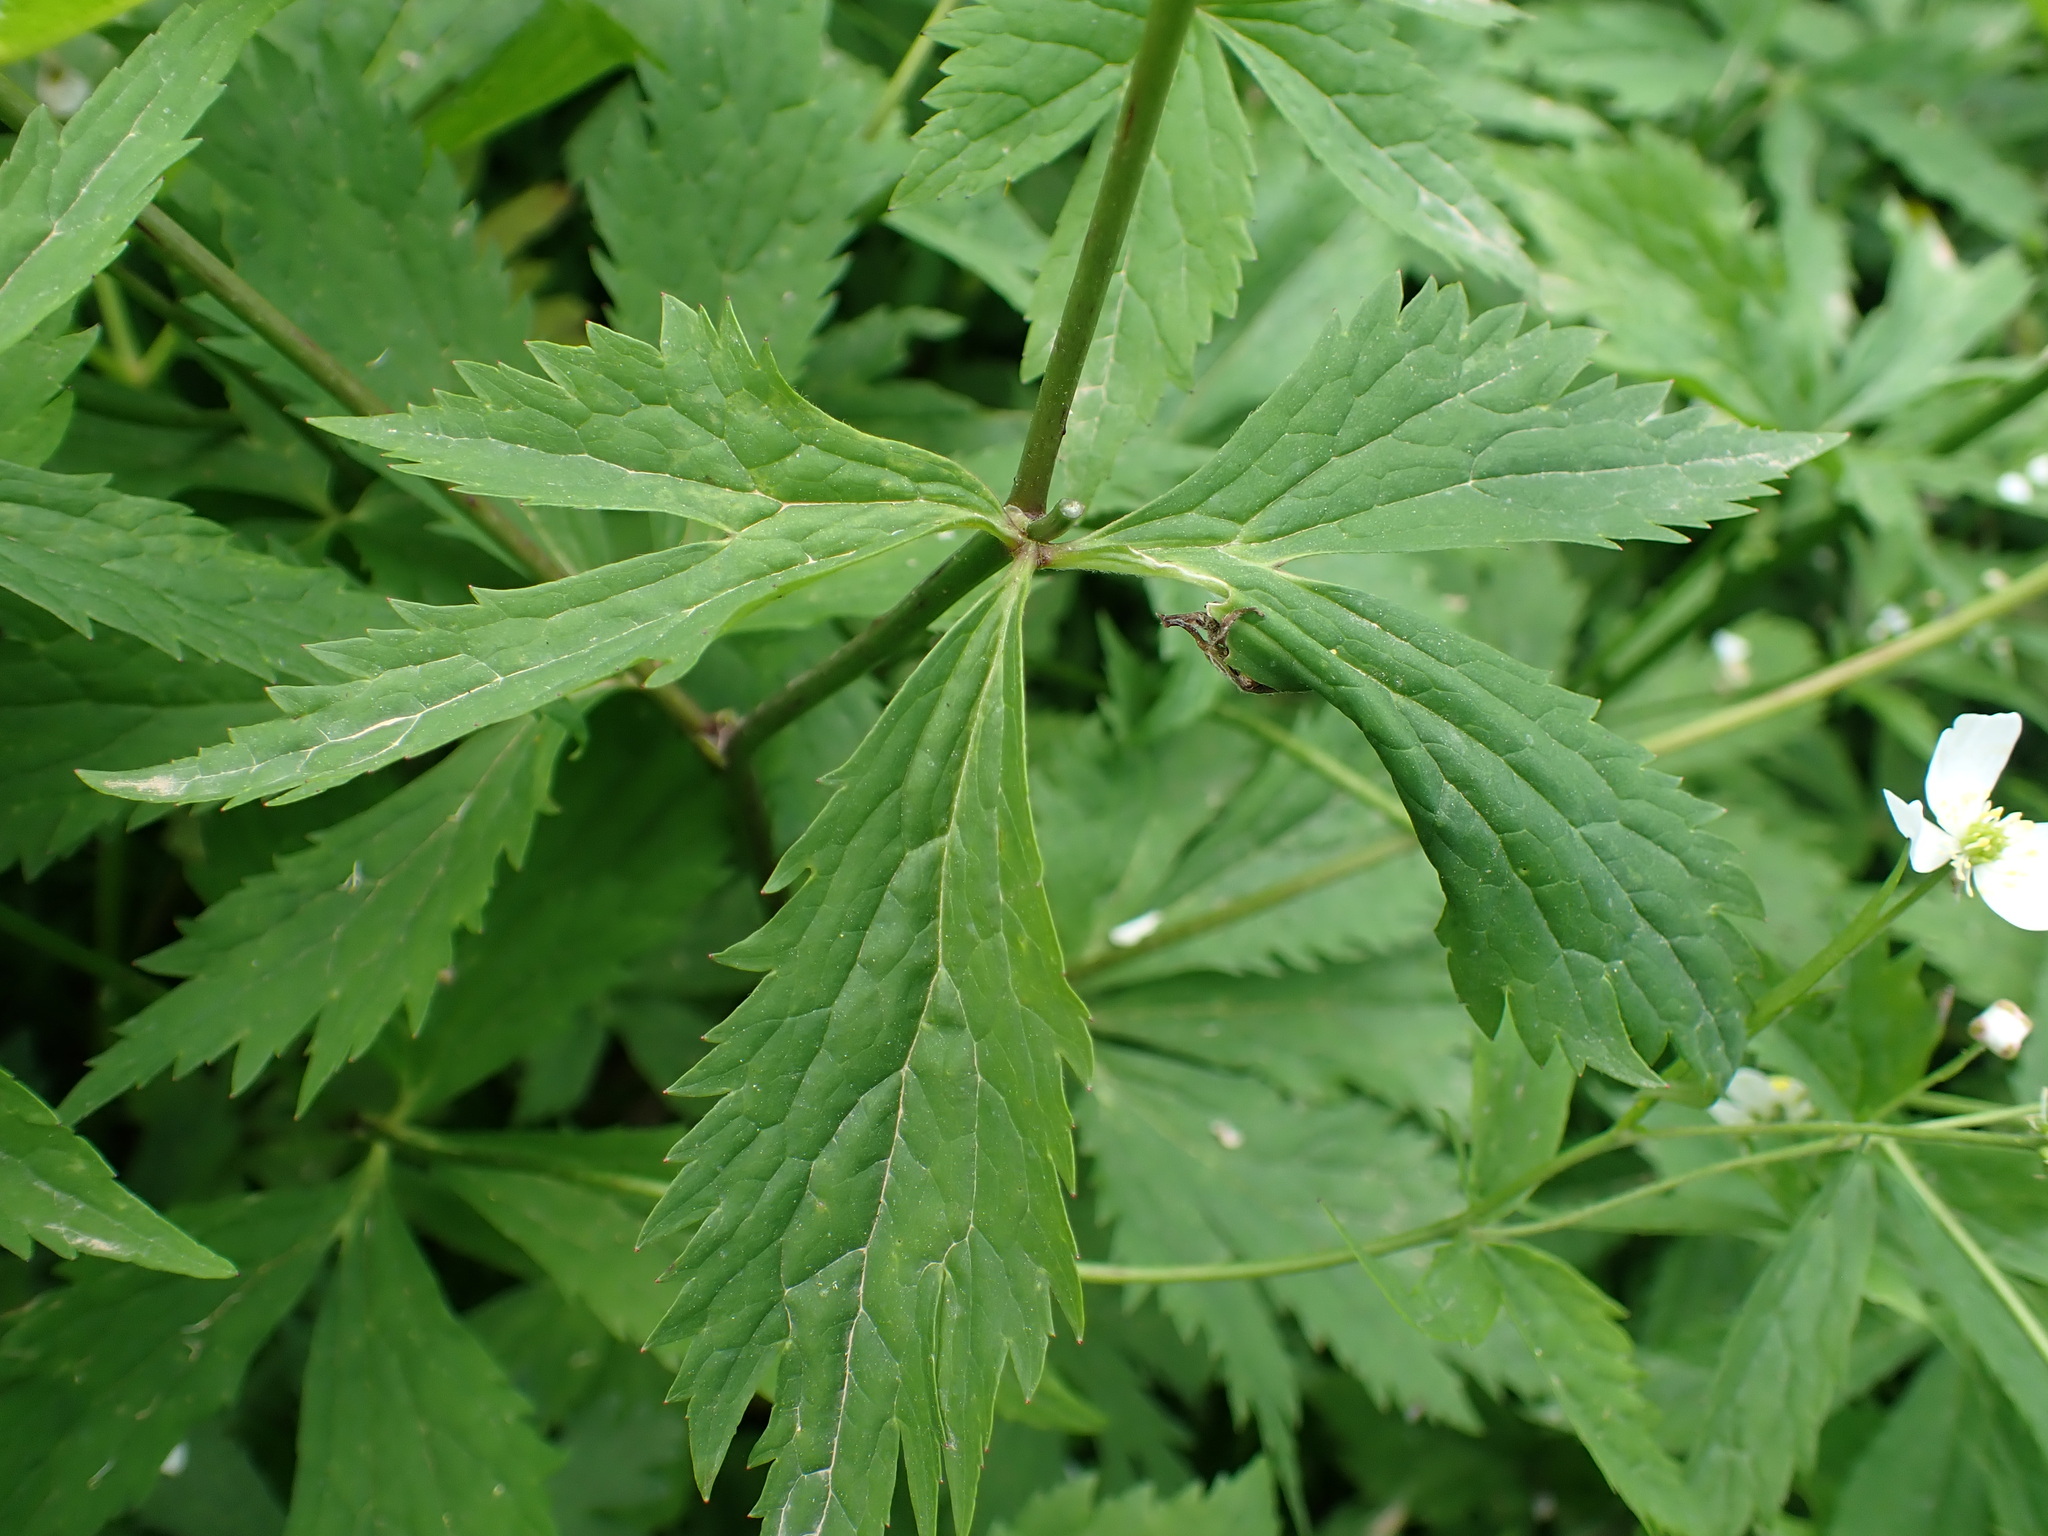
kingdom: Plantae
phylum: Tracheophyta
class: Magnoliopsida
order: Ranunculales
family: Ranunculaceae
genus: Ranunculus
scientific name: Ranunculus aconitifolius
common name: Aconite-leaved buttercup
